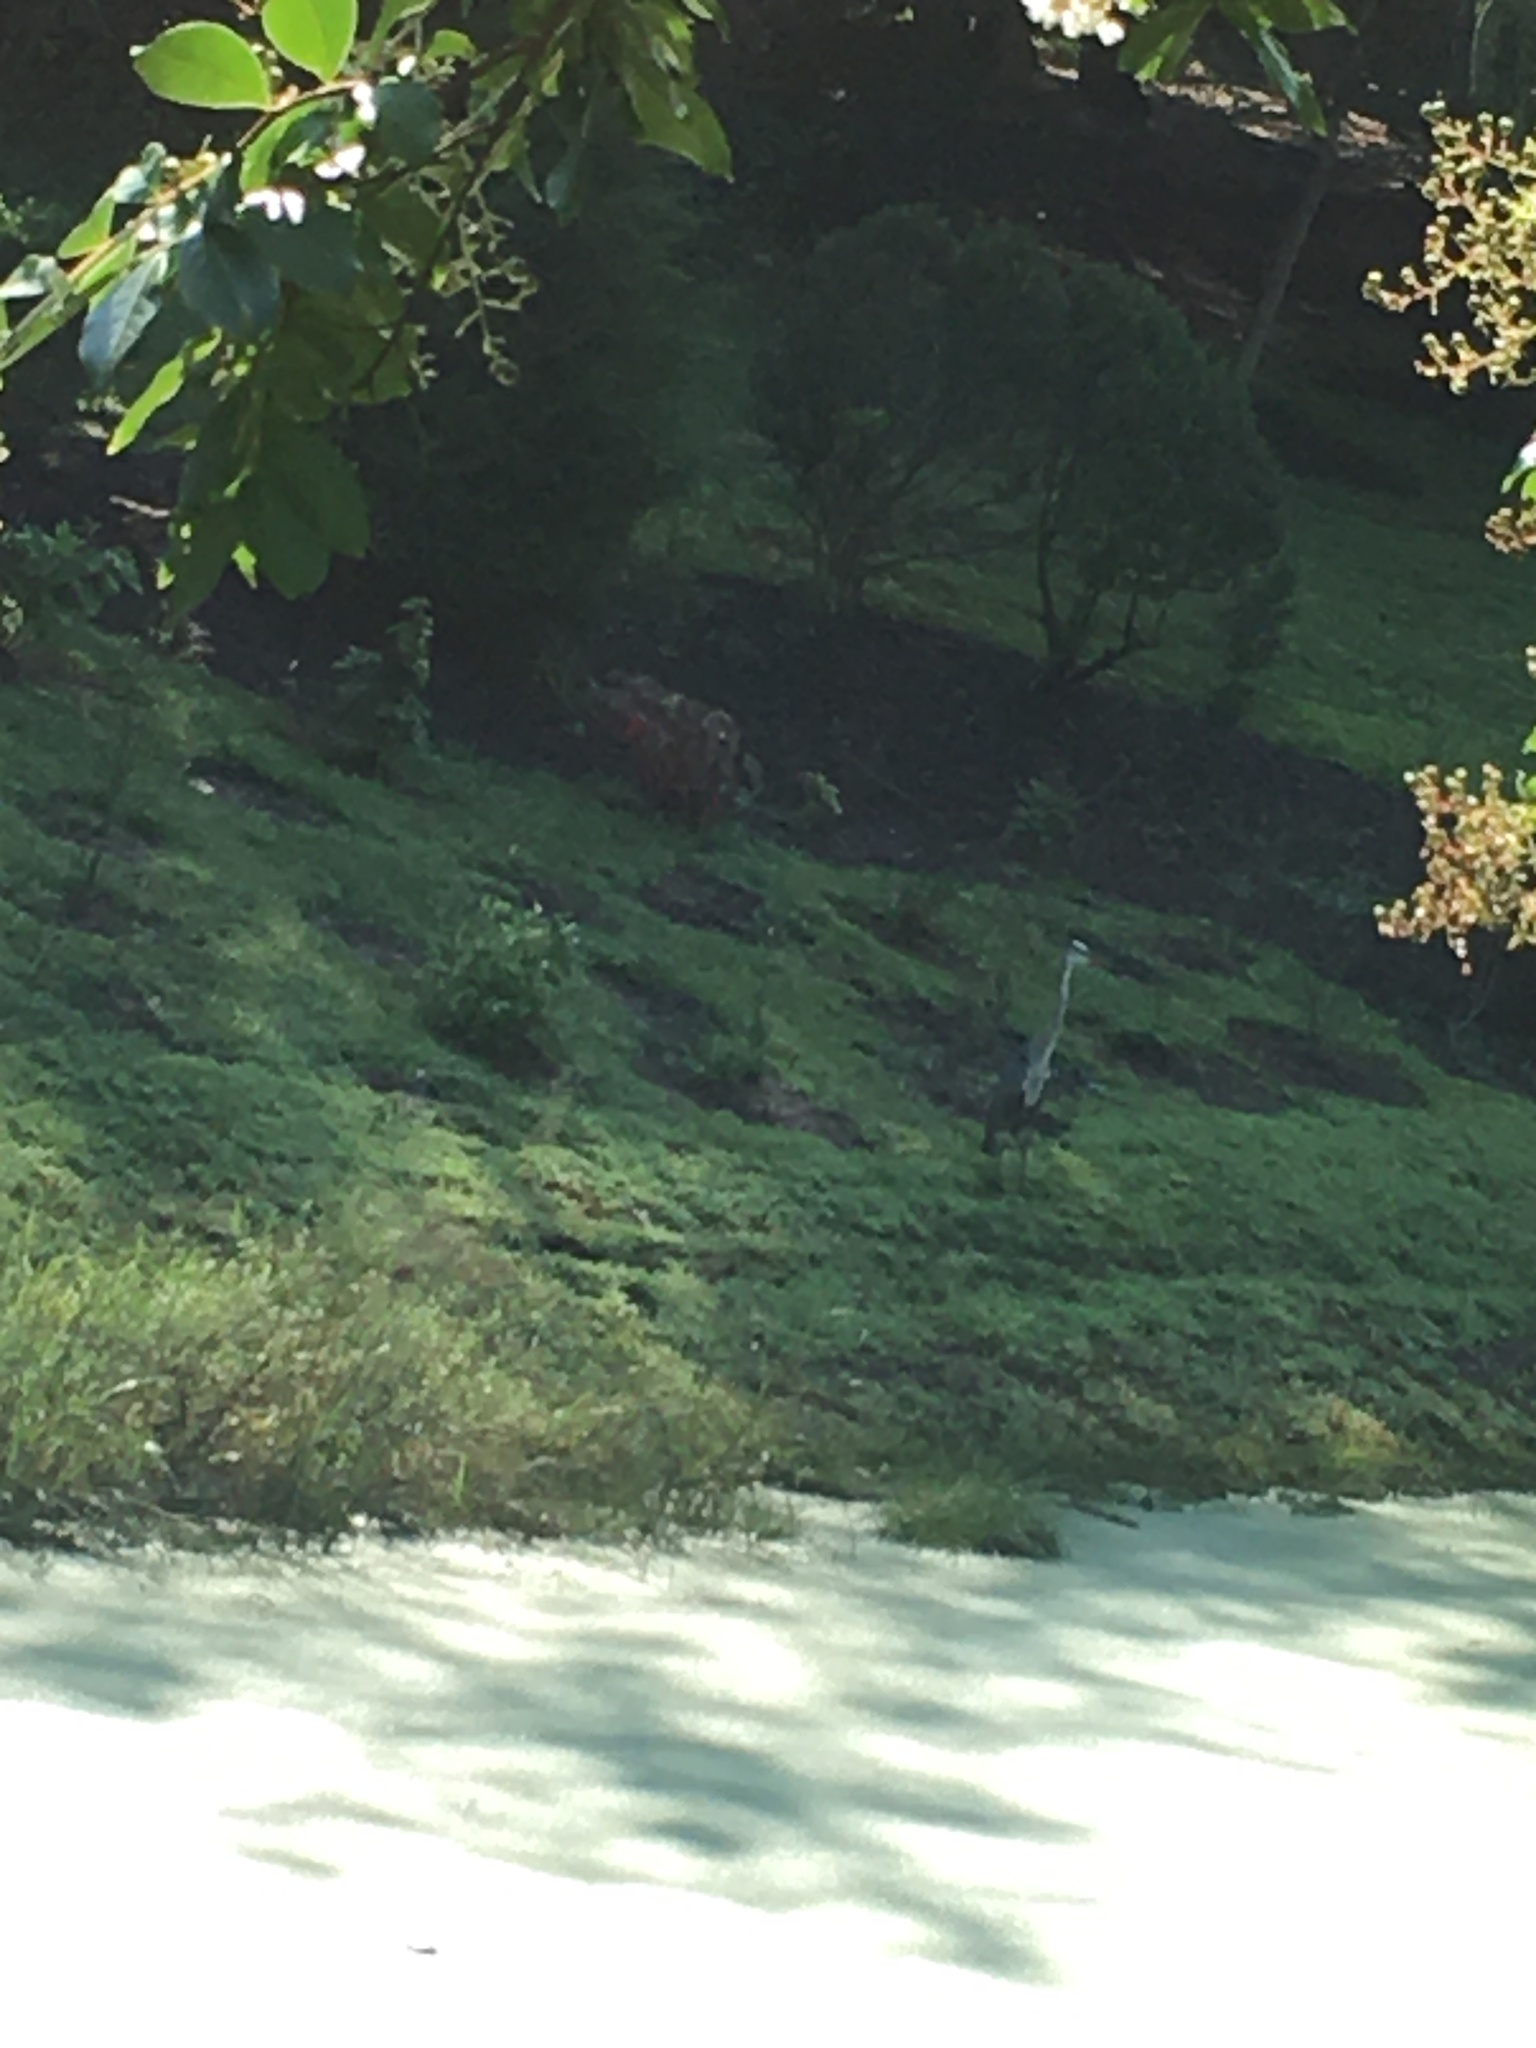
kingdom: Animalia
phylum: Chordata
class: Aves
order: Pelecaniformes
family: Ardeidae
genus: Ardea
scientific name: Ardea herodias
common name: Great blue heron
